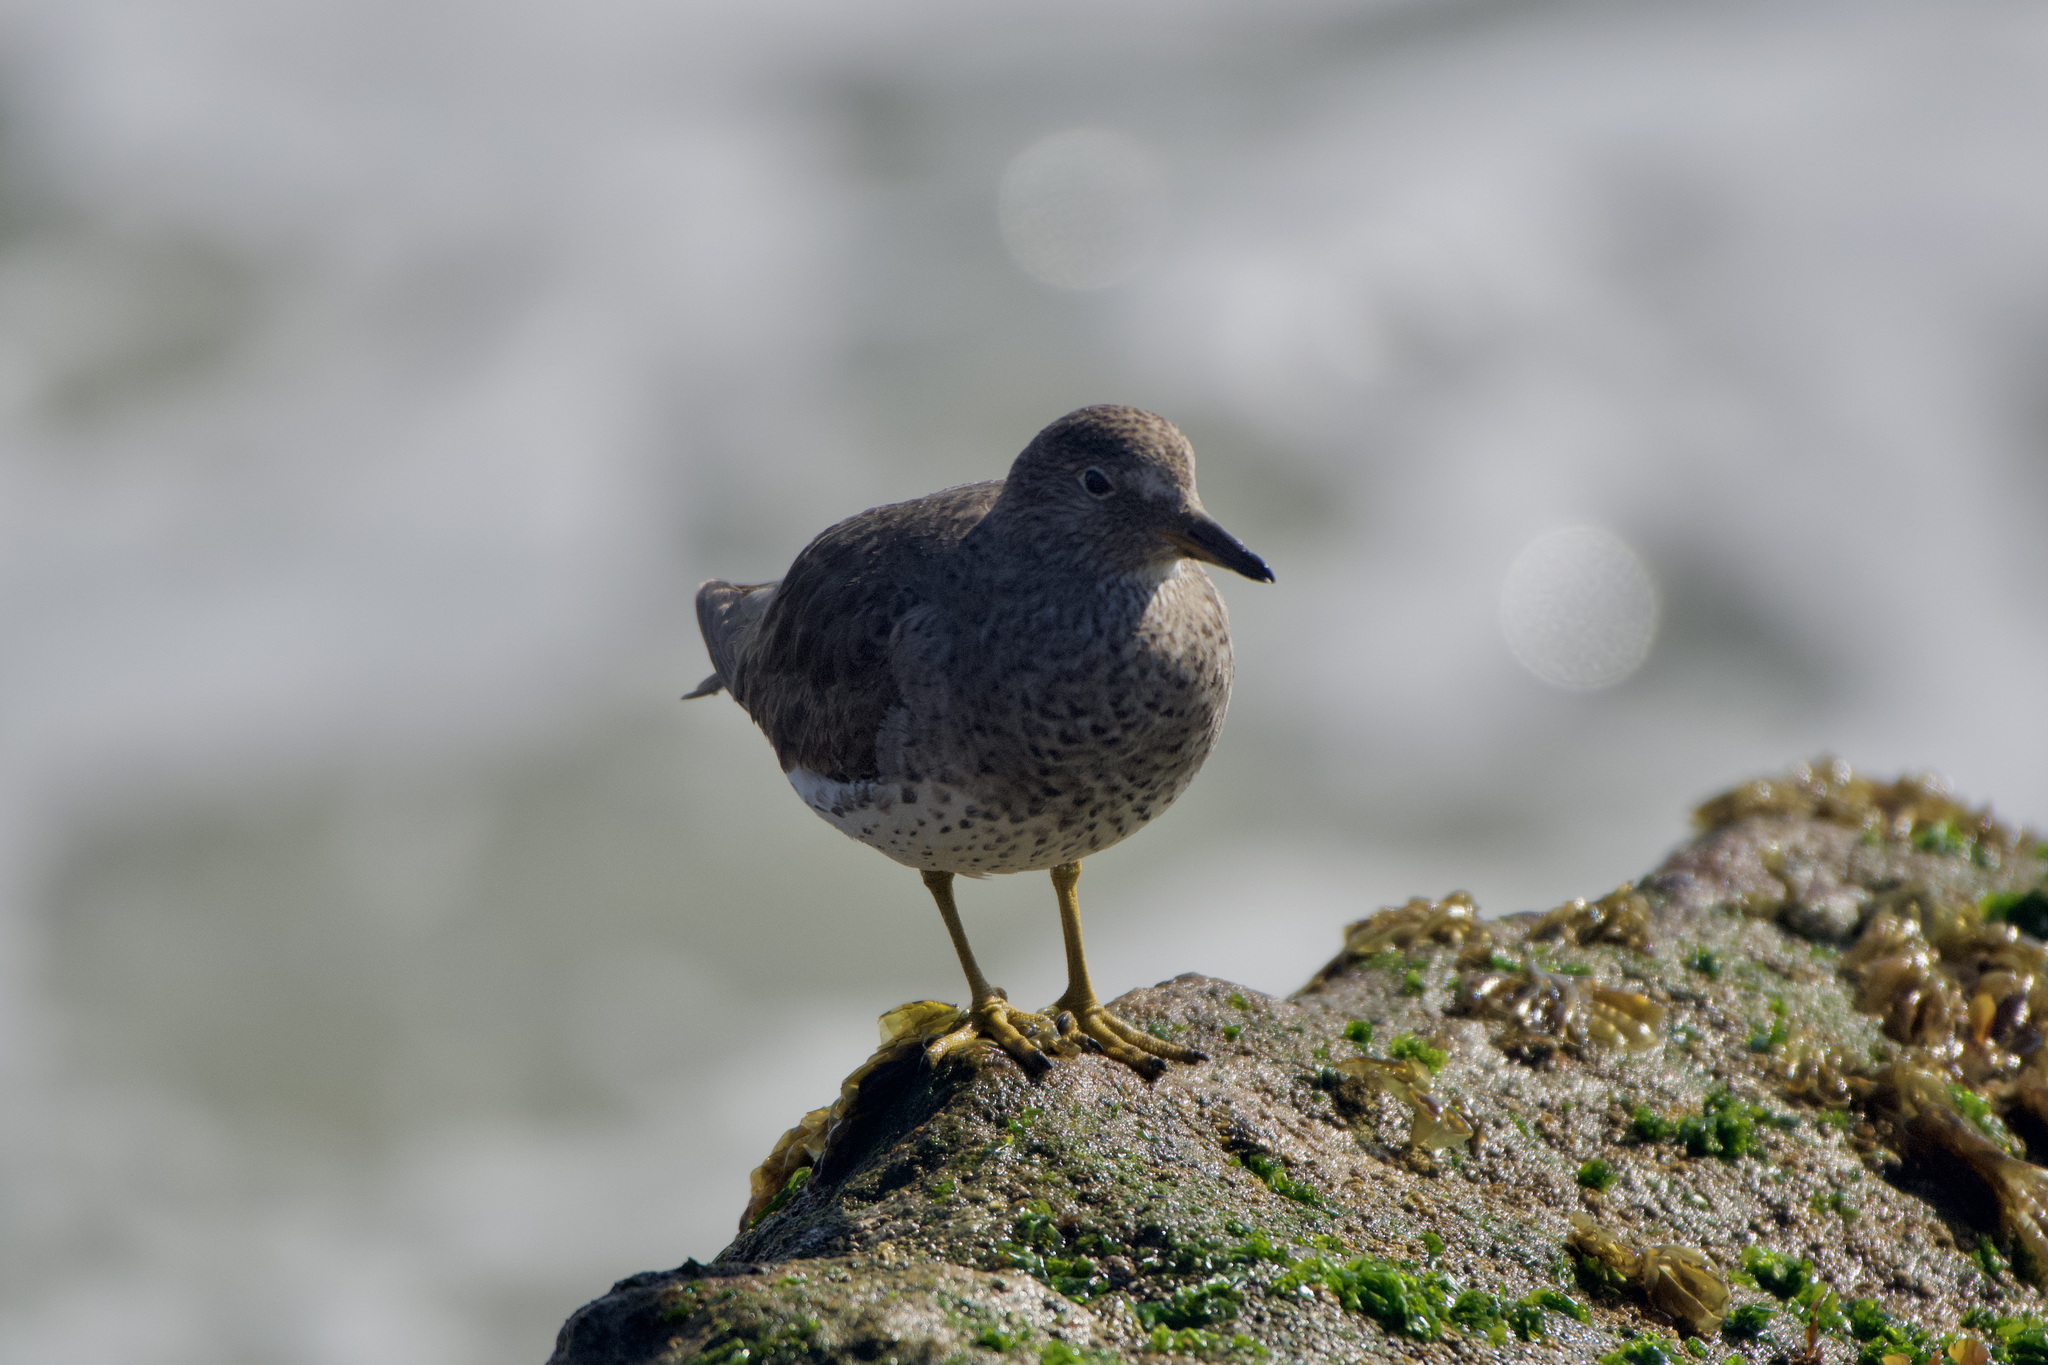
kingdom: Animalia
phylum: Chordata
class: Aves
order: Charadriiformes
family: Scolopacidae
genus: Calidris
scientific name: Calidris virgata
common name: Surfbird
